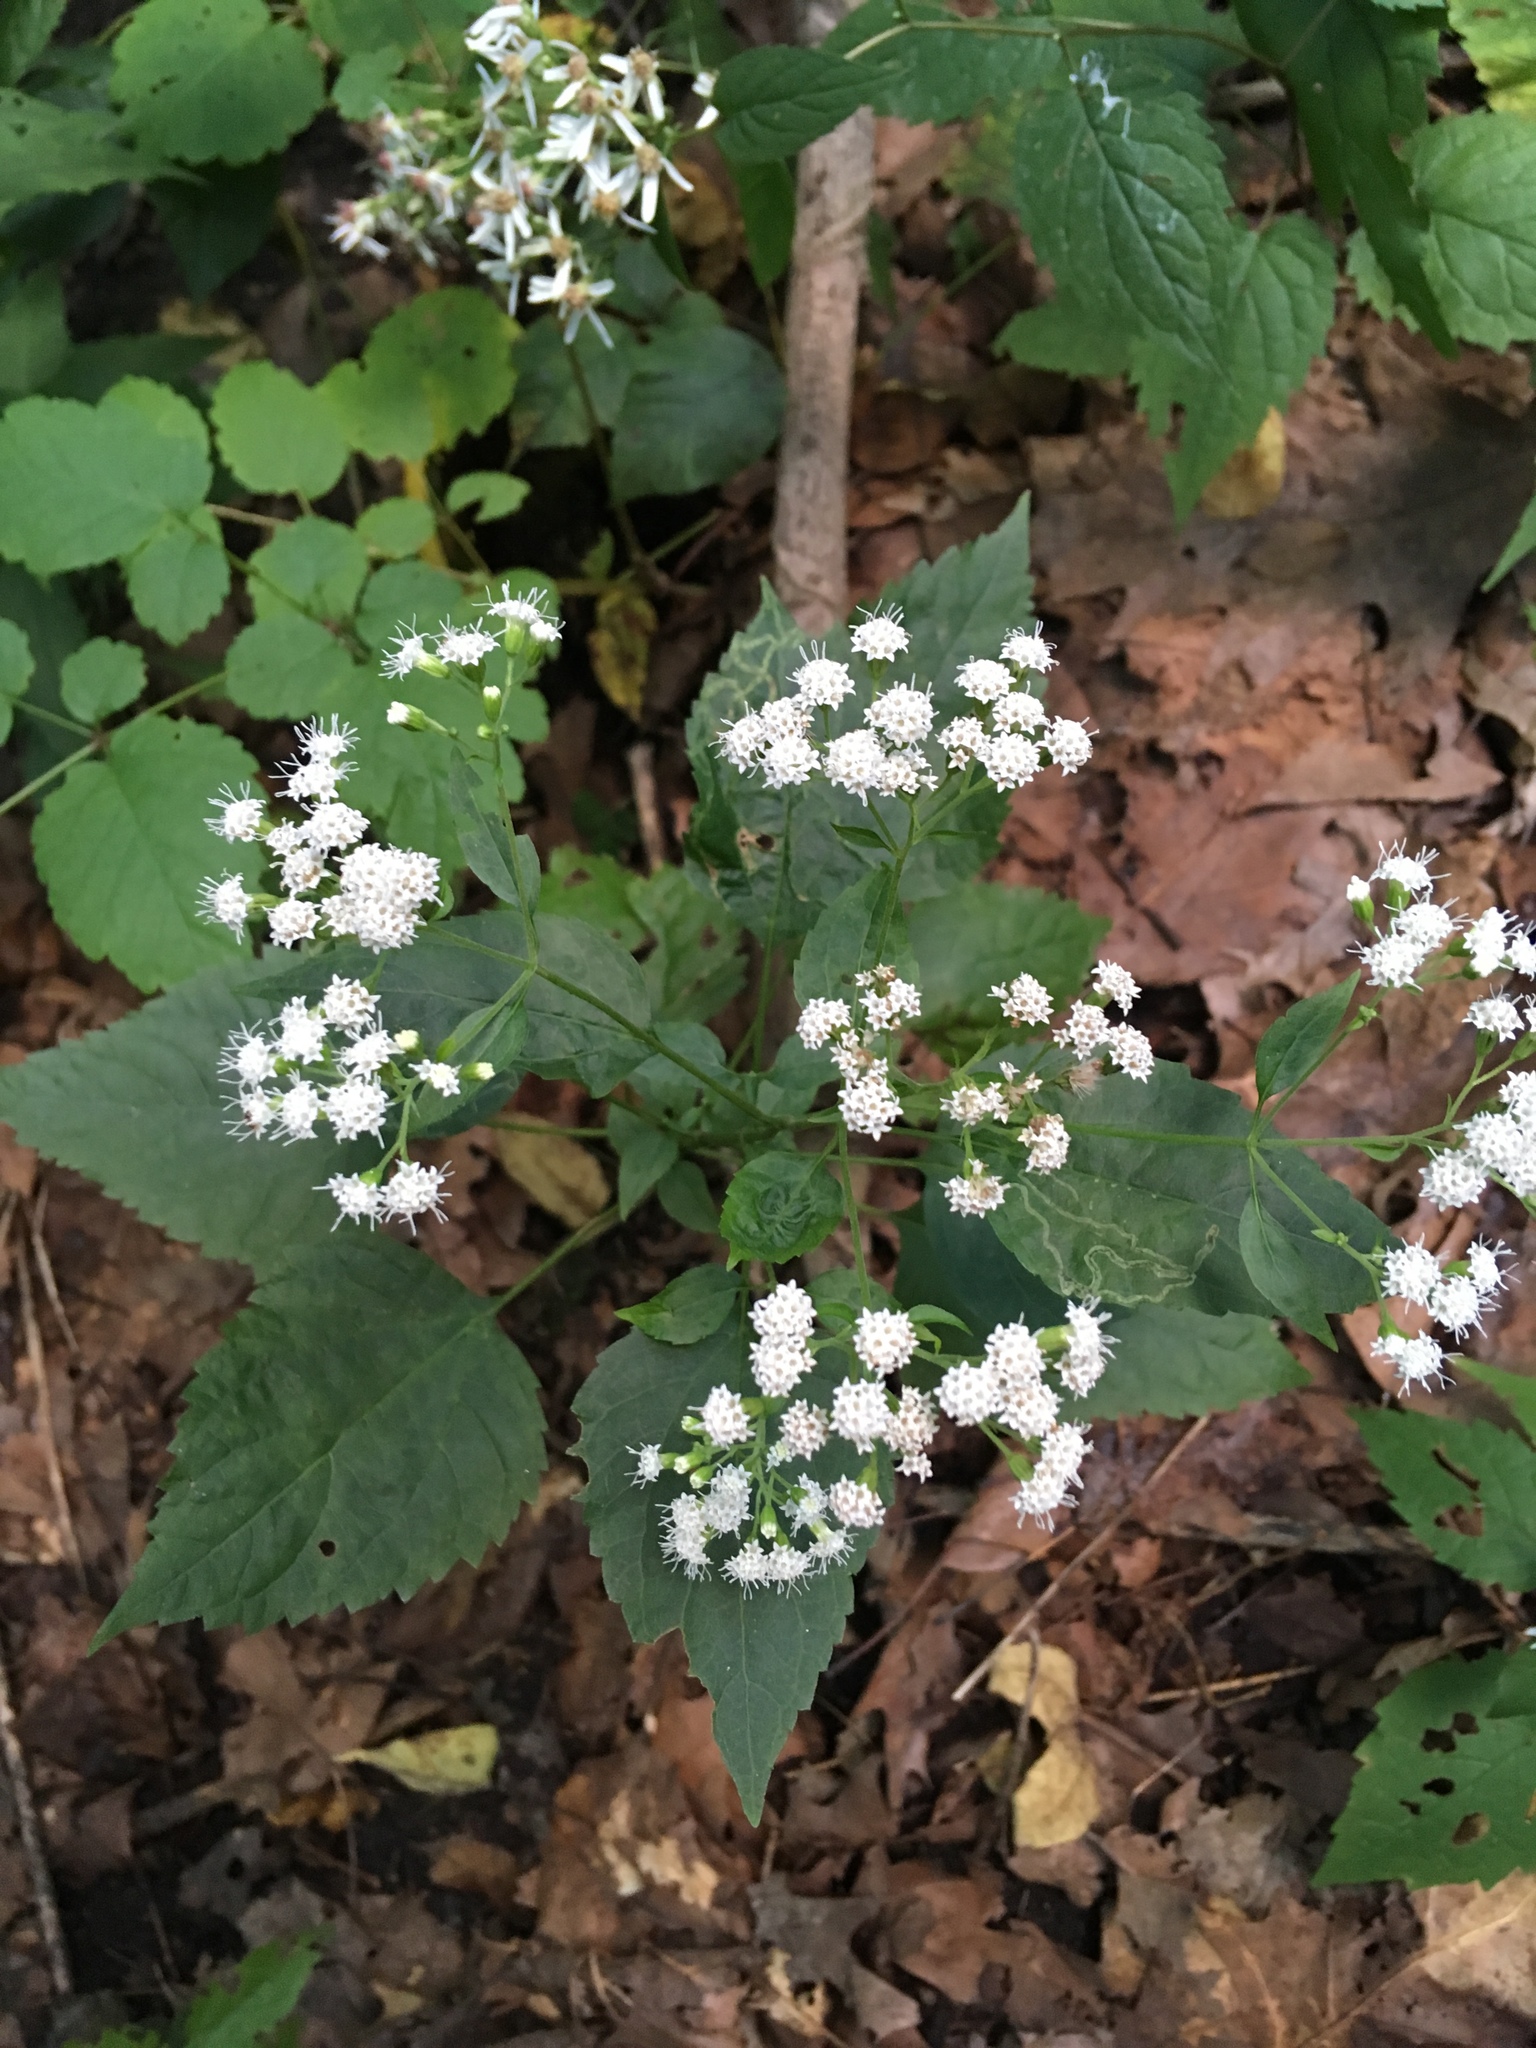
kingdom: Plantae
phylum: Tracheophyta
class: Magnoliopsida
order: Asterales
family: Asteraceae
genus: Ageratina
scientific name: Ageratina altissima
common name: White snakeroot
